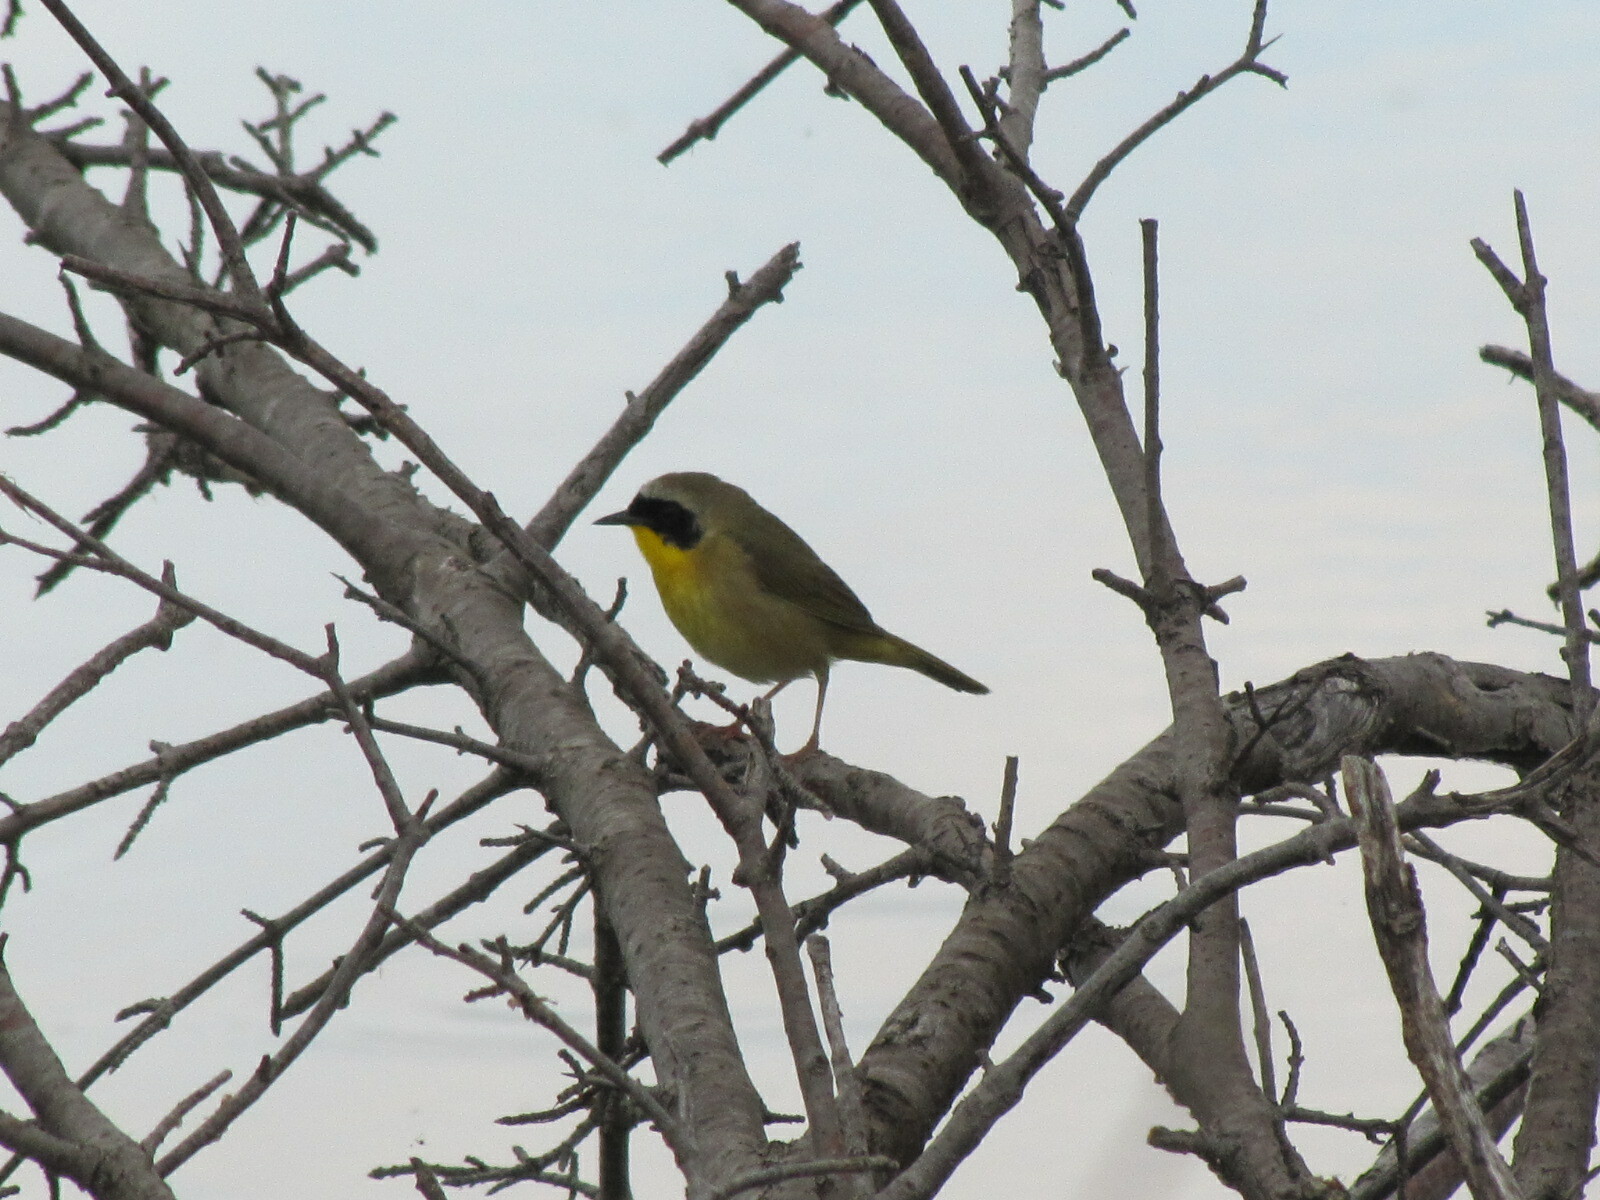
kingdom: Animalia
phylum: Chordata
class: Aves
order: Passeriformes
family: Parulidae
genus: Geothlypis
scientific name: Geothlypis trichas
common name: Common yellowthroat
